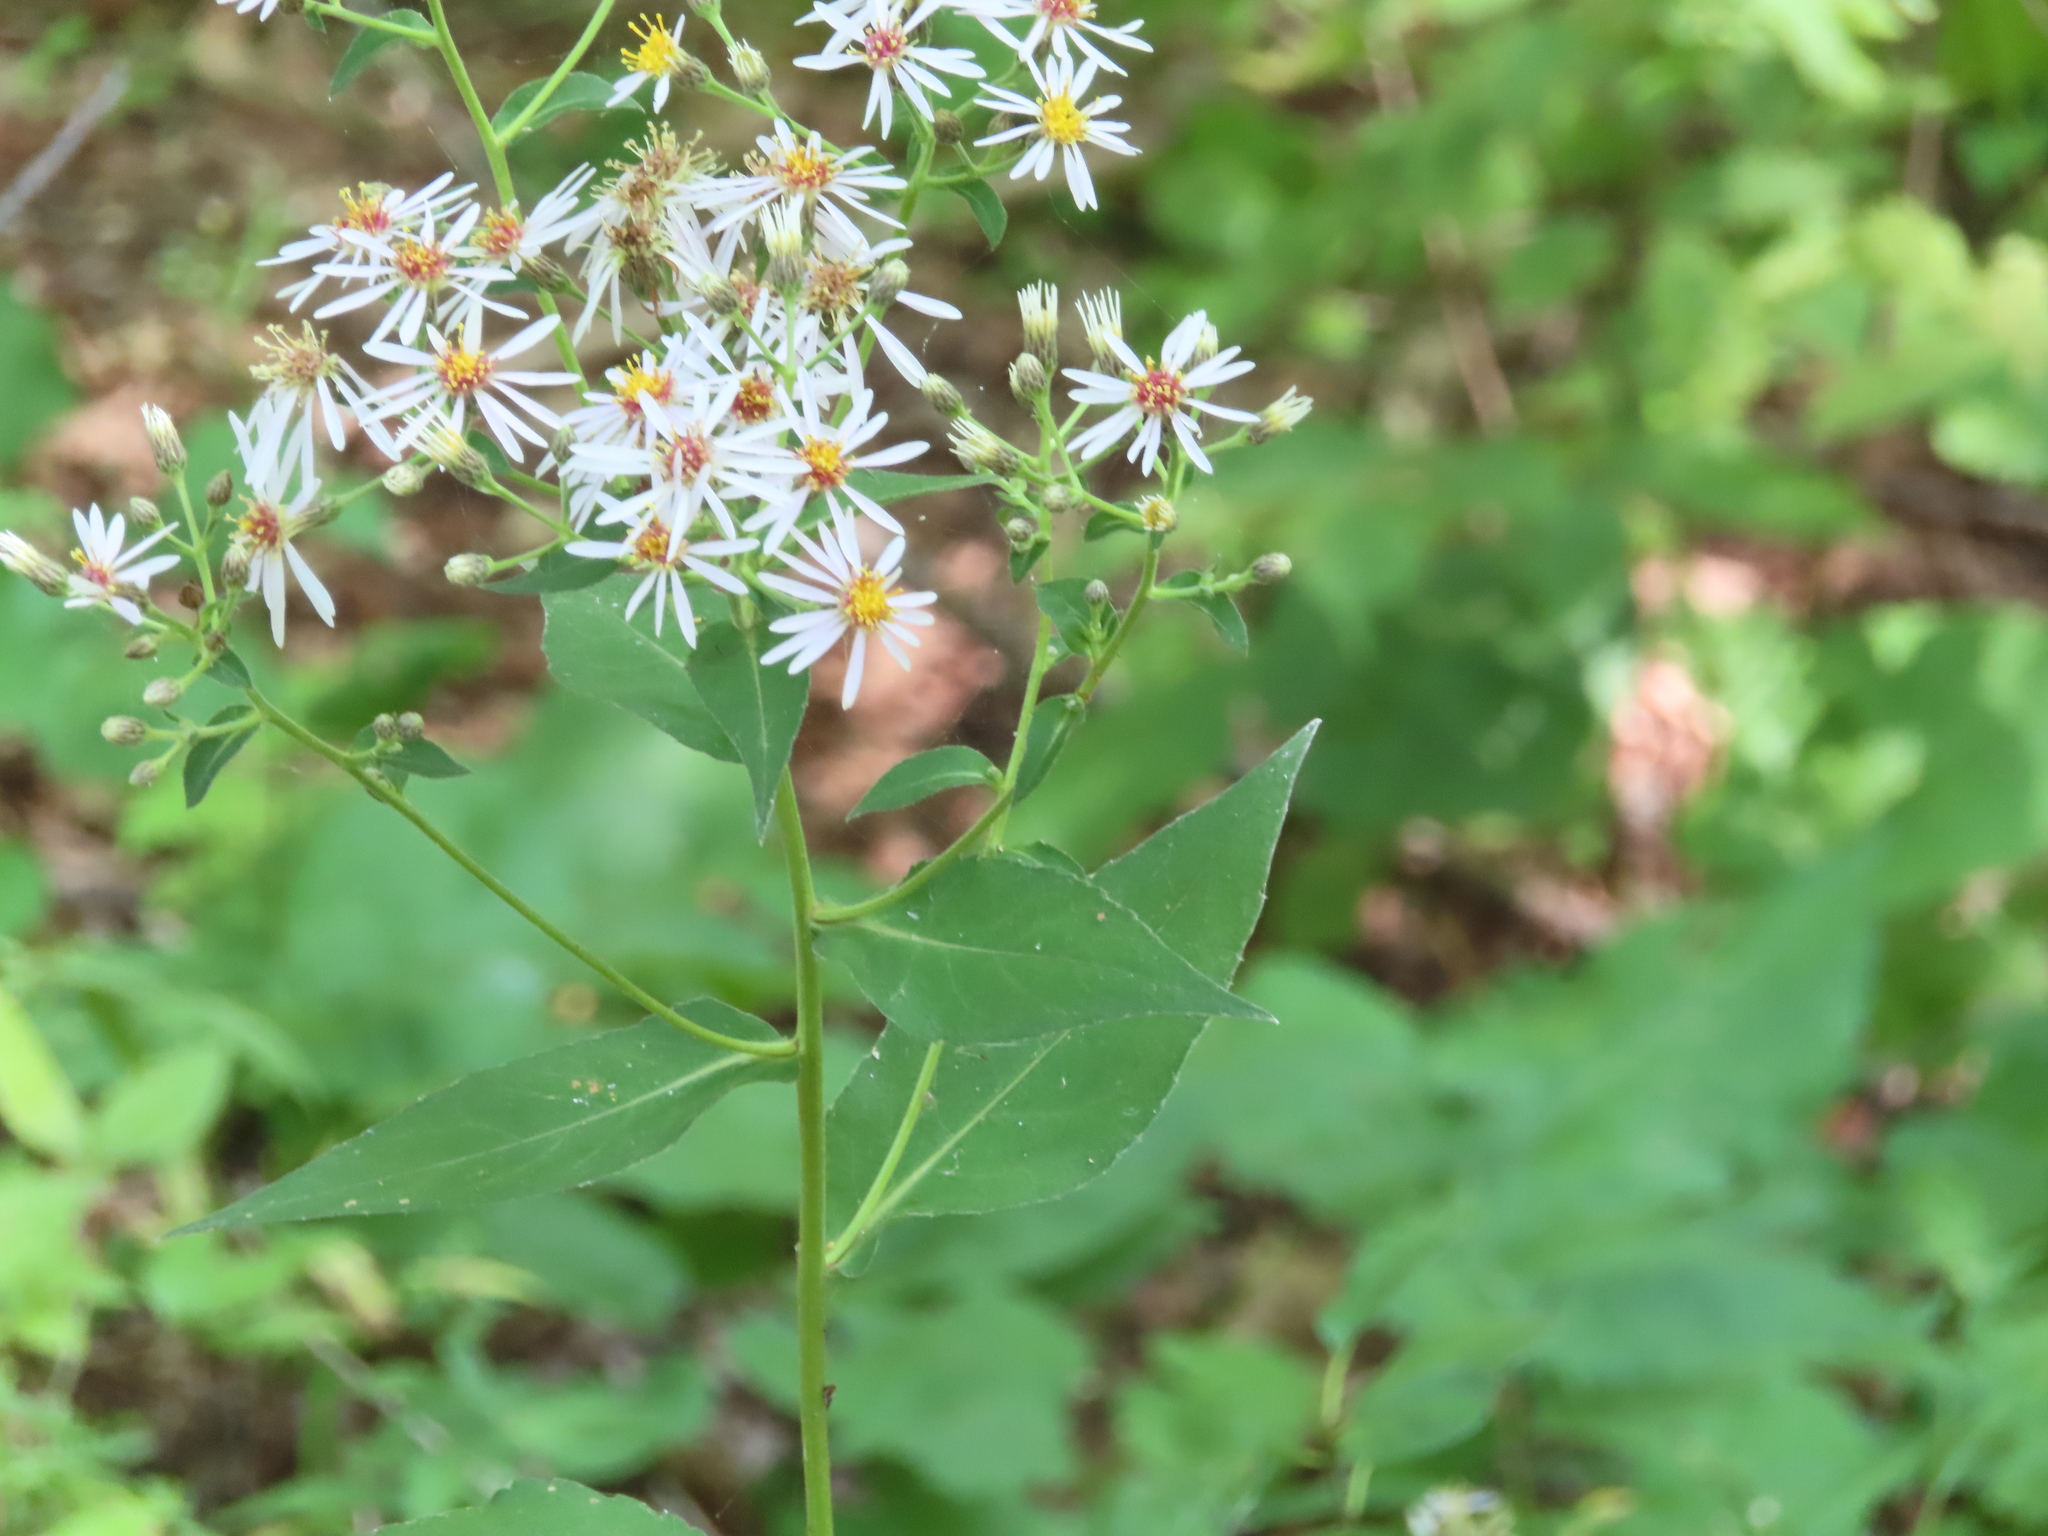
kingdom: Plantae
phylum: Tracheophyta
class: Magnoliopsida
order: Asterales
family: Asteraceae
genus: Eurybia
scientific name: Eurybia macrophylla
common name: Big-leaved aster
